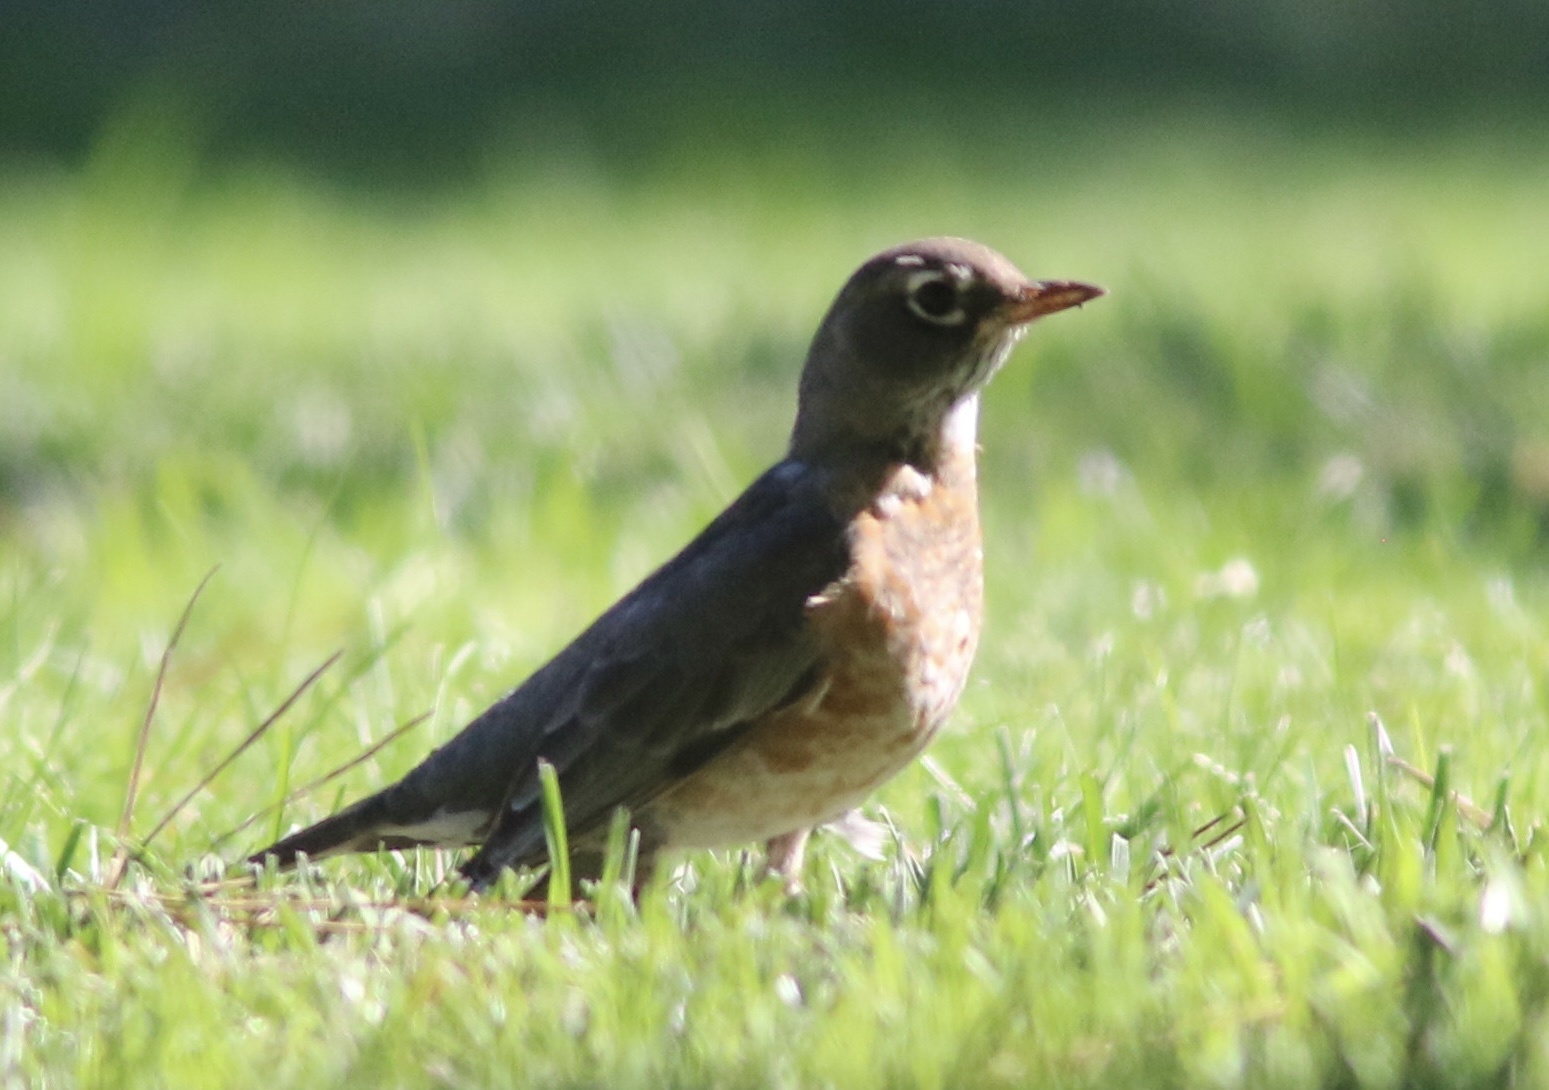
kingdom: Animalia
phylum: Chordata
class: Aves
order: Passeriformes
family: Turdidae
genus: Turdus
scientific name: Turdus migratorius
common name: American robin
